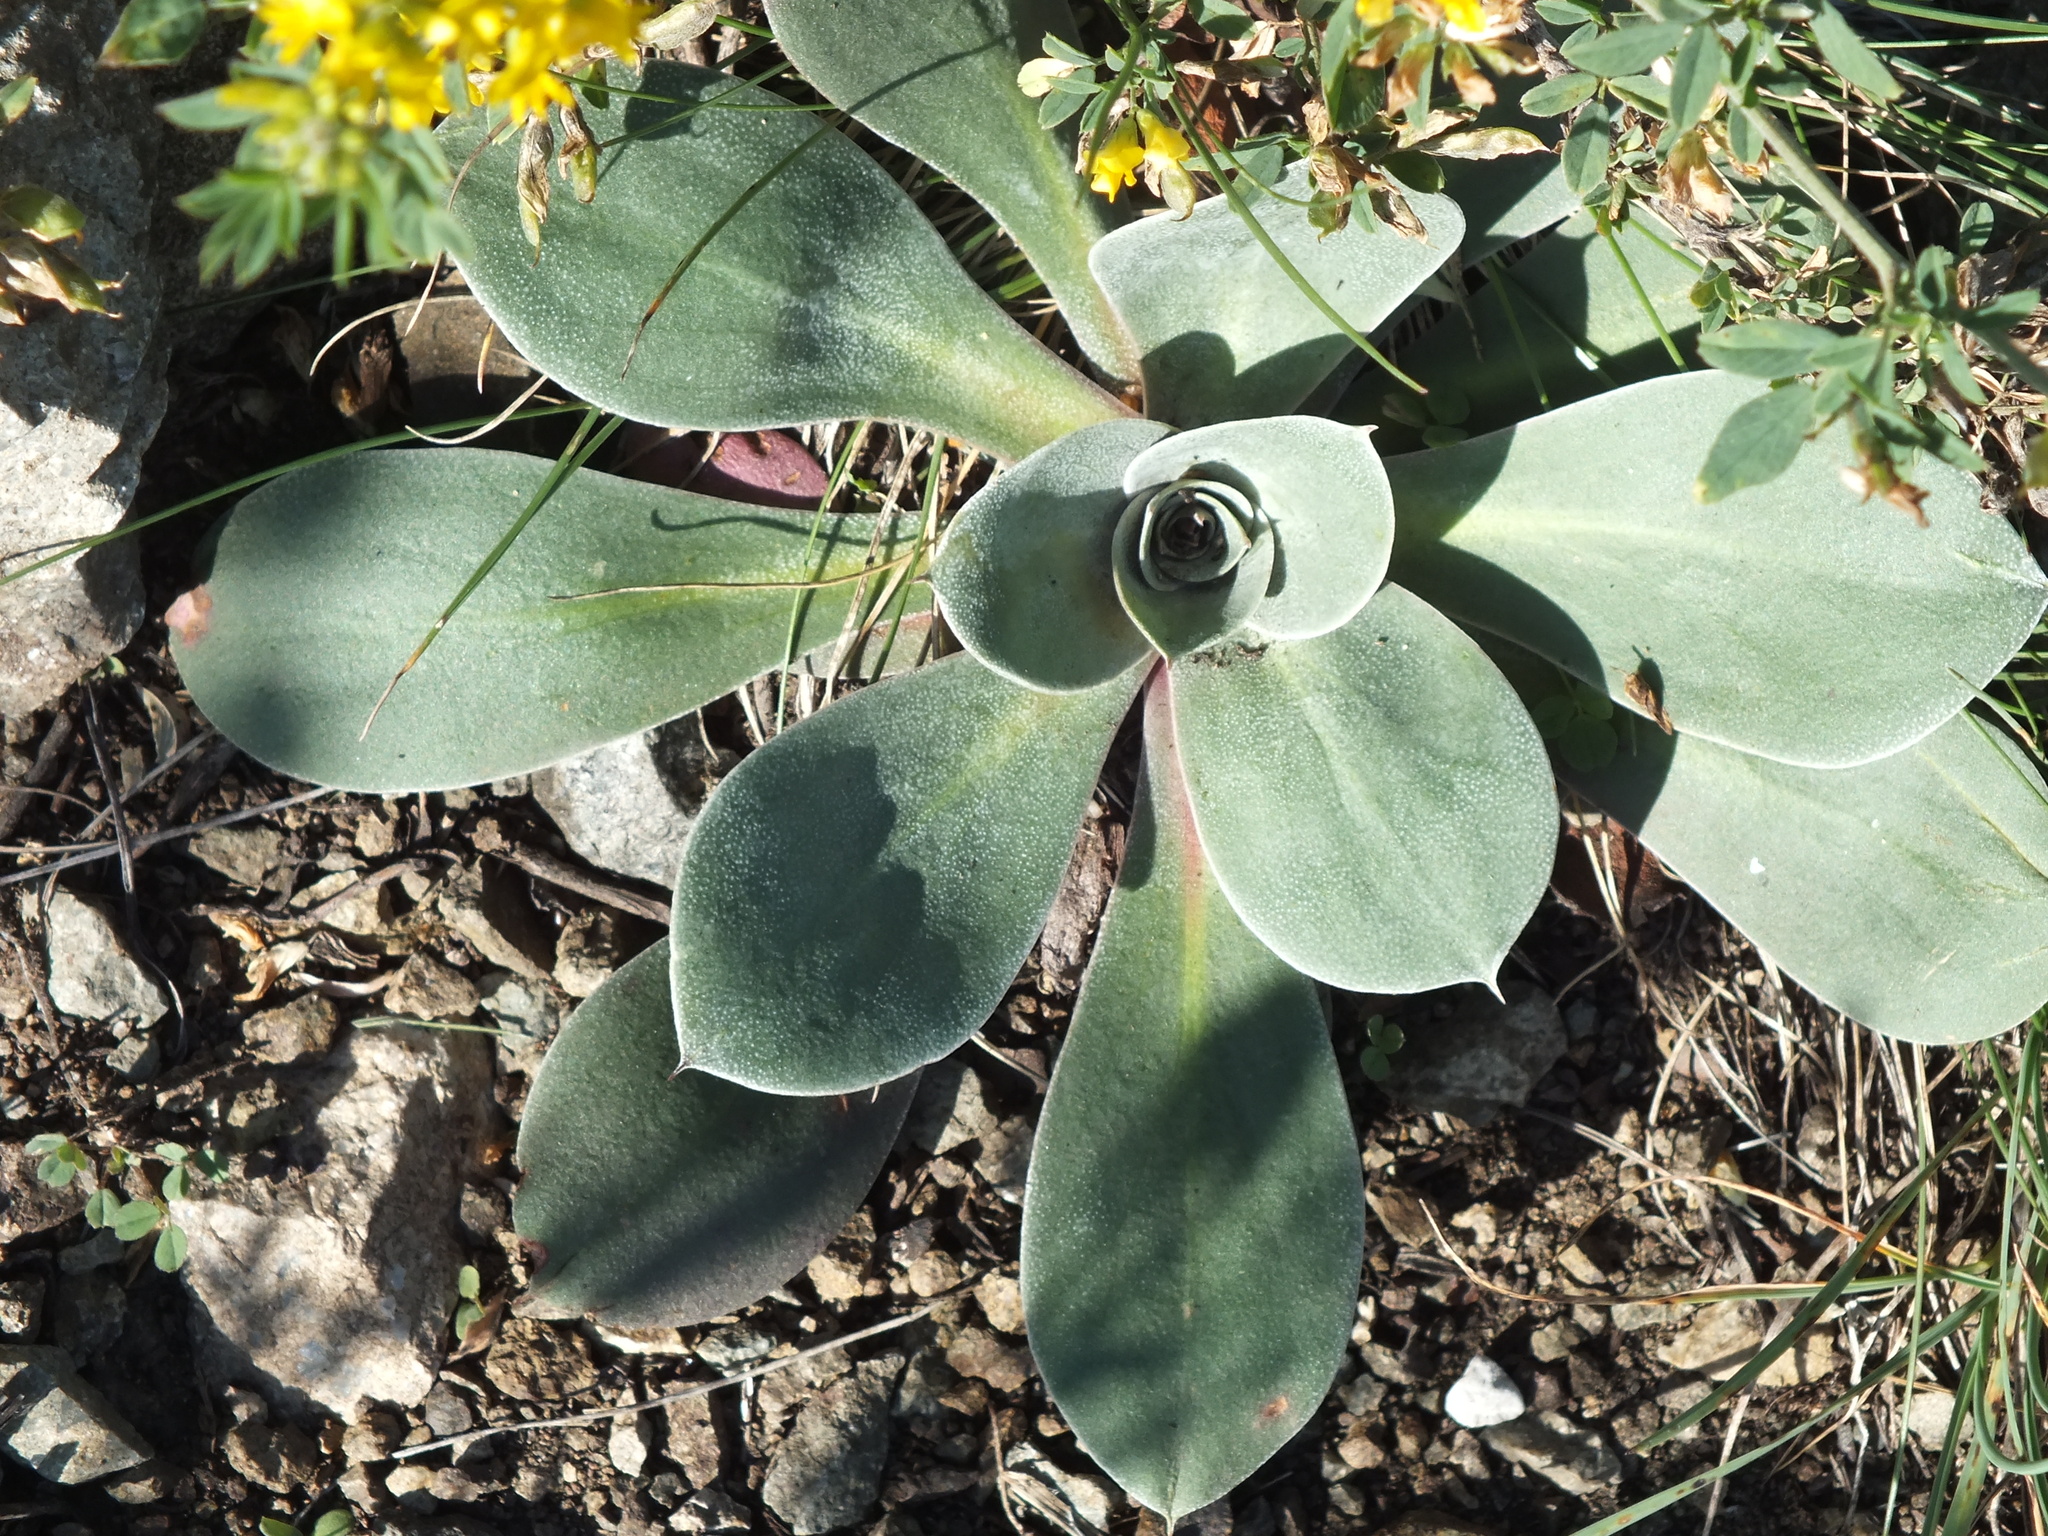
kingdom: Plantae
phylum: Tracheophyta
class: Magnoliopsida
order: Caryophyllales
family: Plumbaginaceae
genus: Goniolimon
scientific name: Goniolimon speciosum
